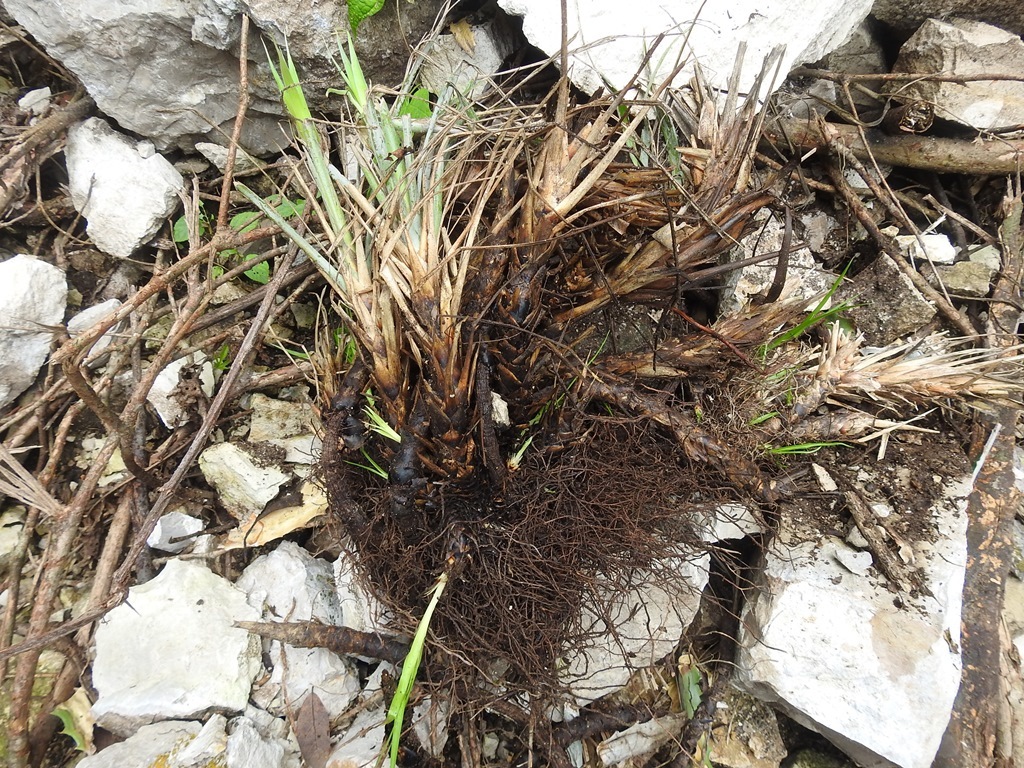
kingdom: Plantae
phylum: Tracheophyta
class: Liliopsida
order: Poales
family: Bromeliaceae
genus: Pitcairnia
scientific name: Pitcairnia heterophylla
